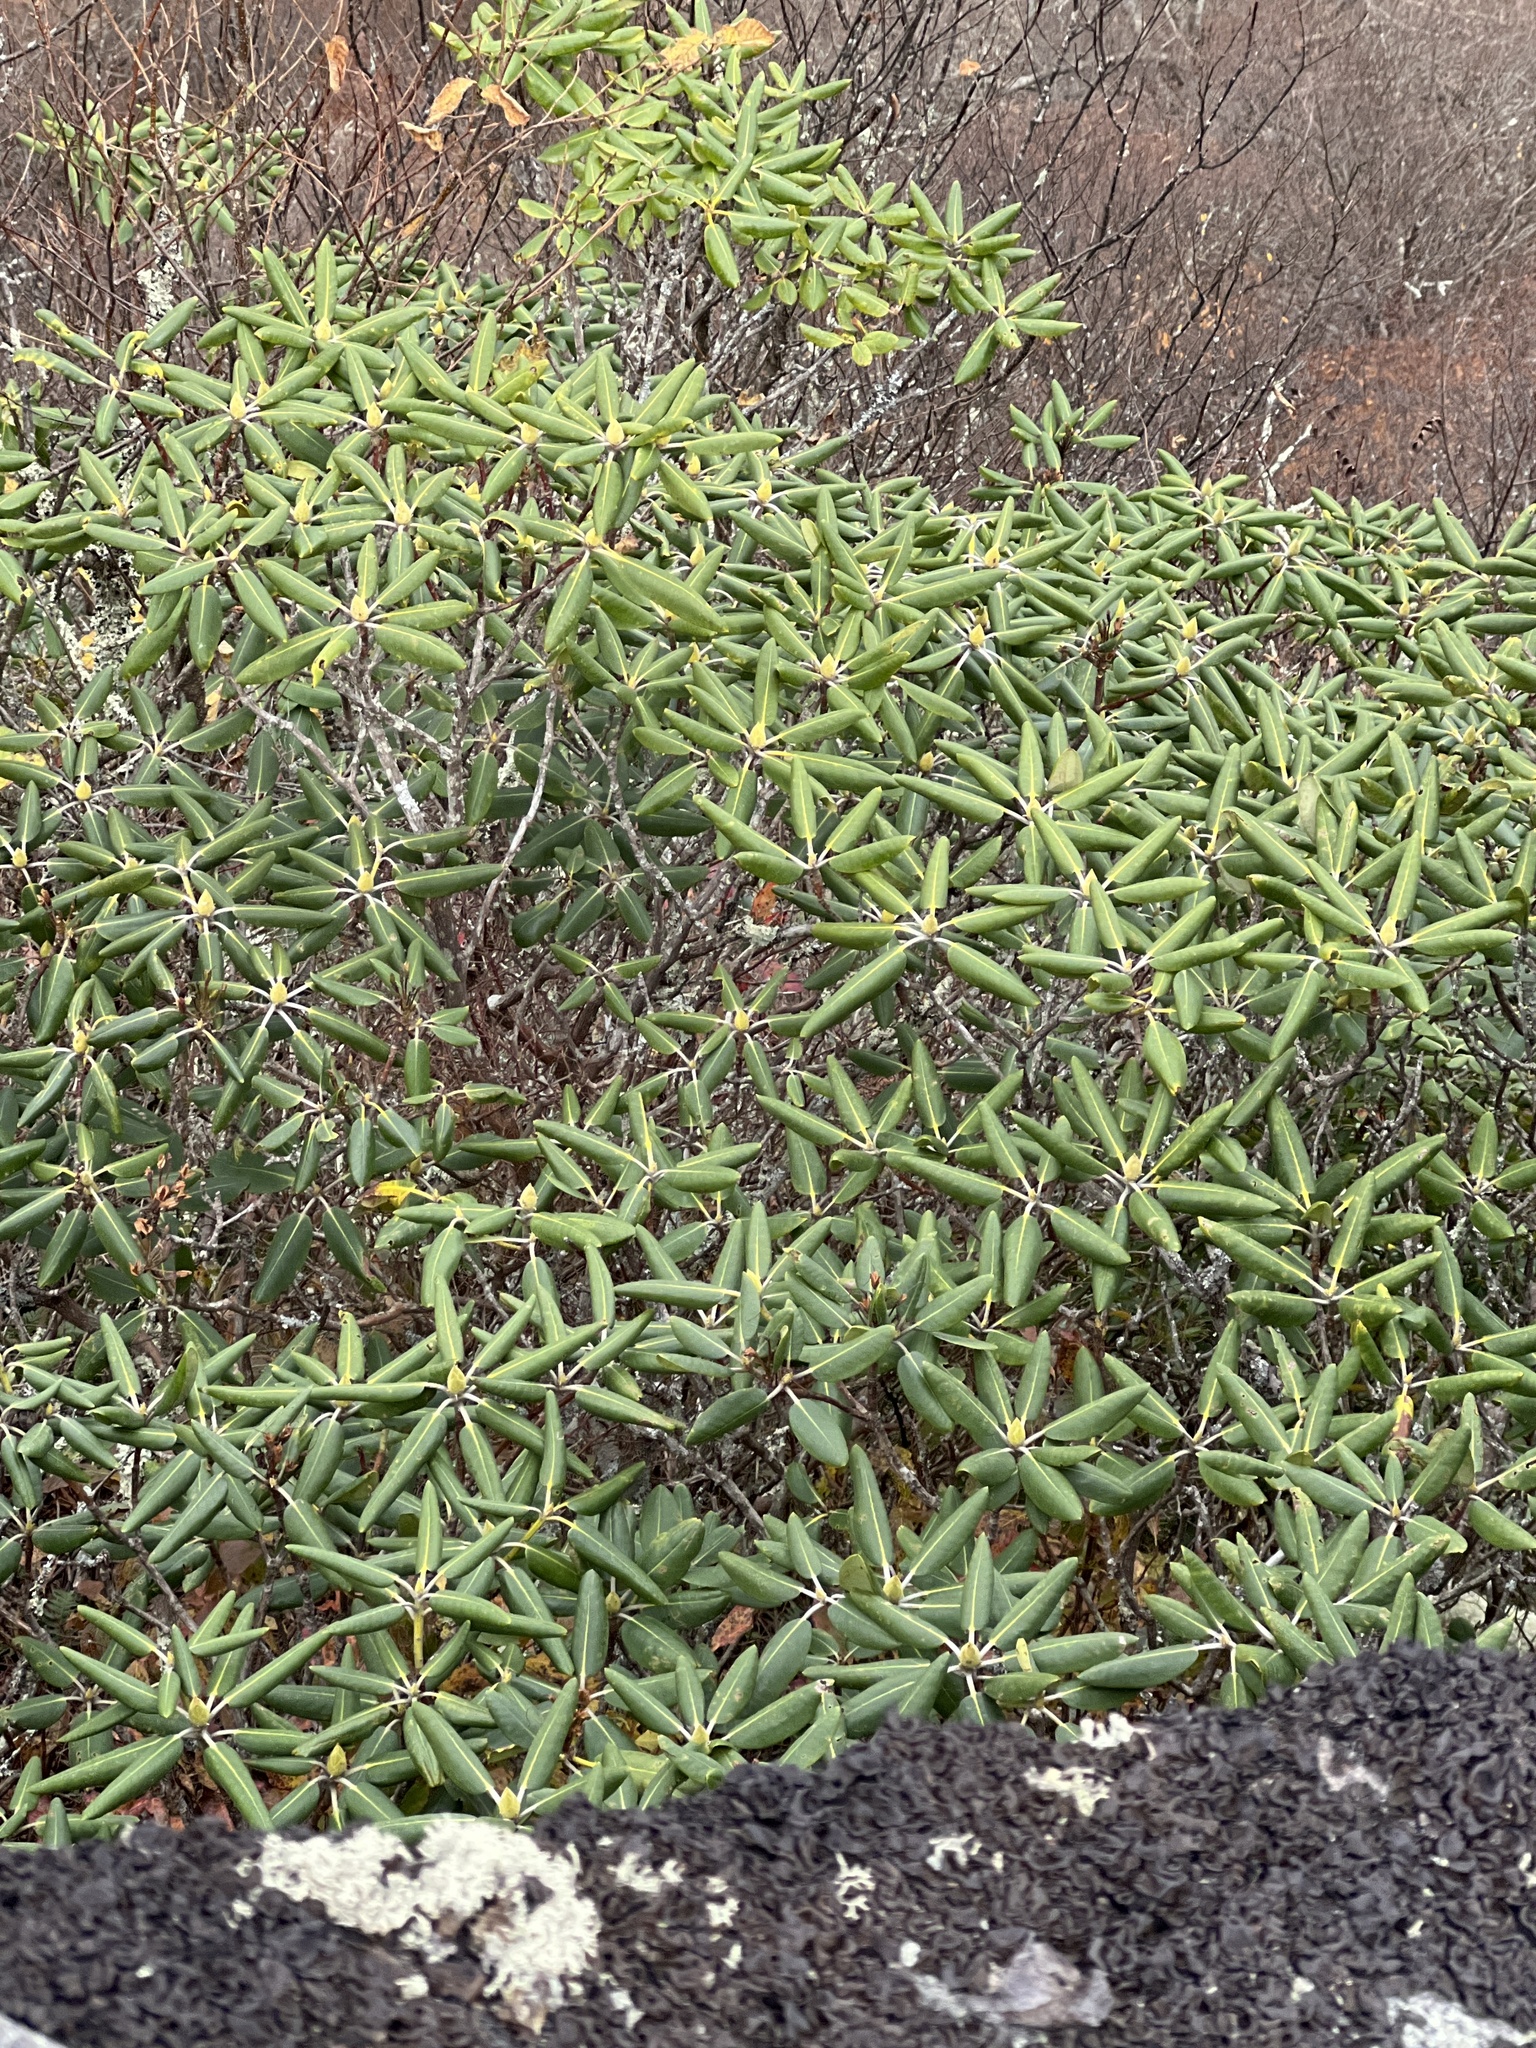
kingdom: Plantae
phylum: Tracheophyta
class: Magnoliopsida
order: Ericales
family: Ericaceae
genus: Rhododendron
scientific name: Rhododendron catawbiense
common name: Catawba rhododendron
